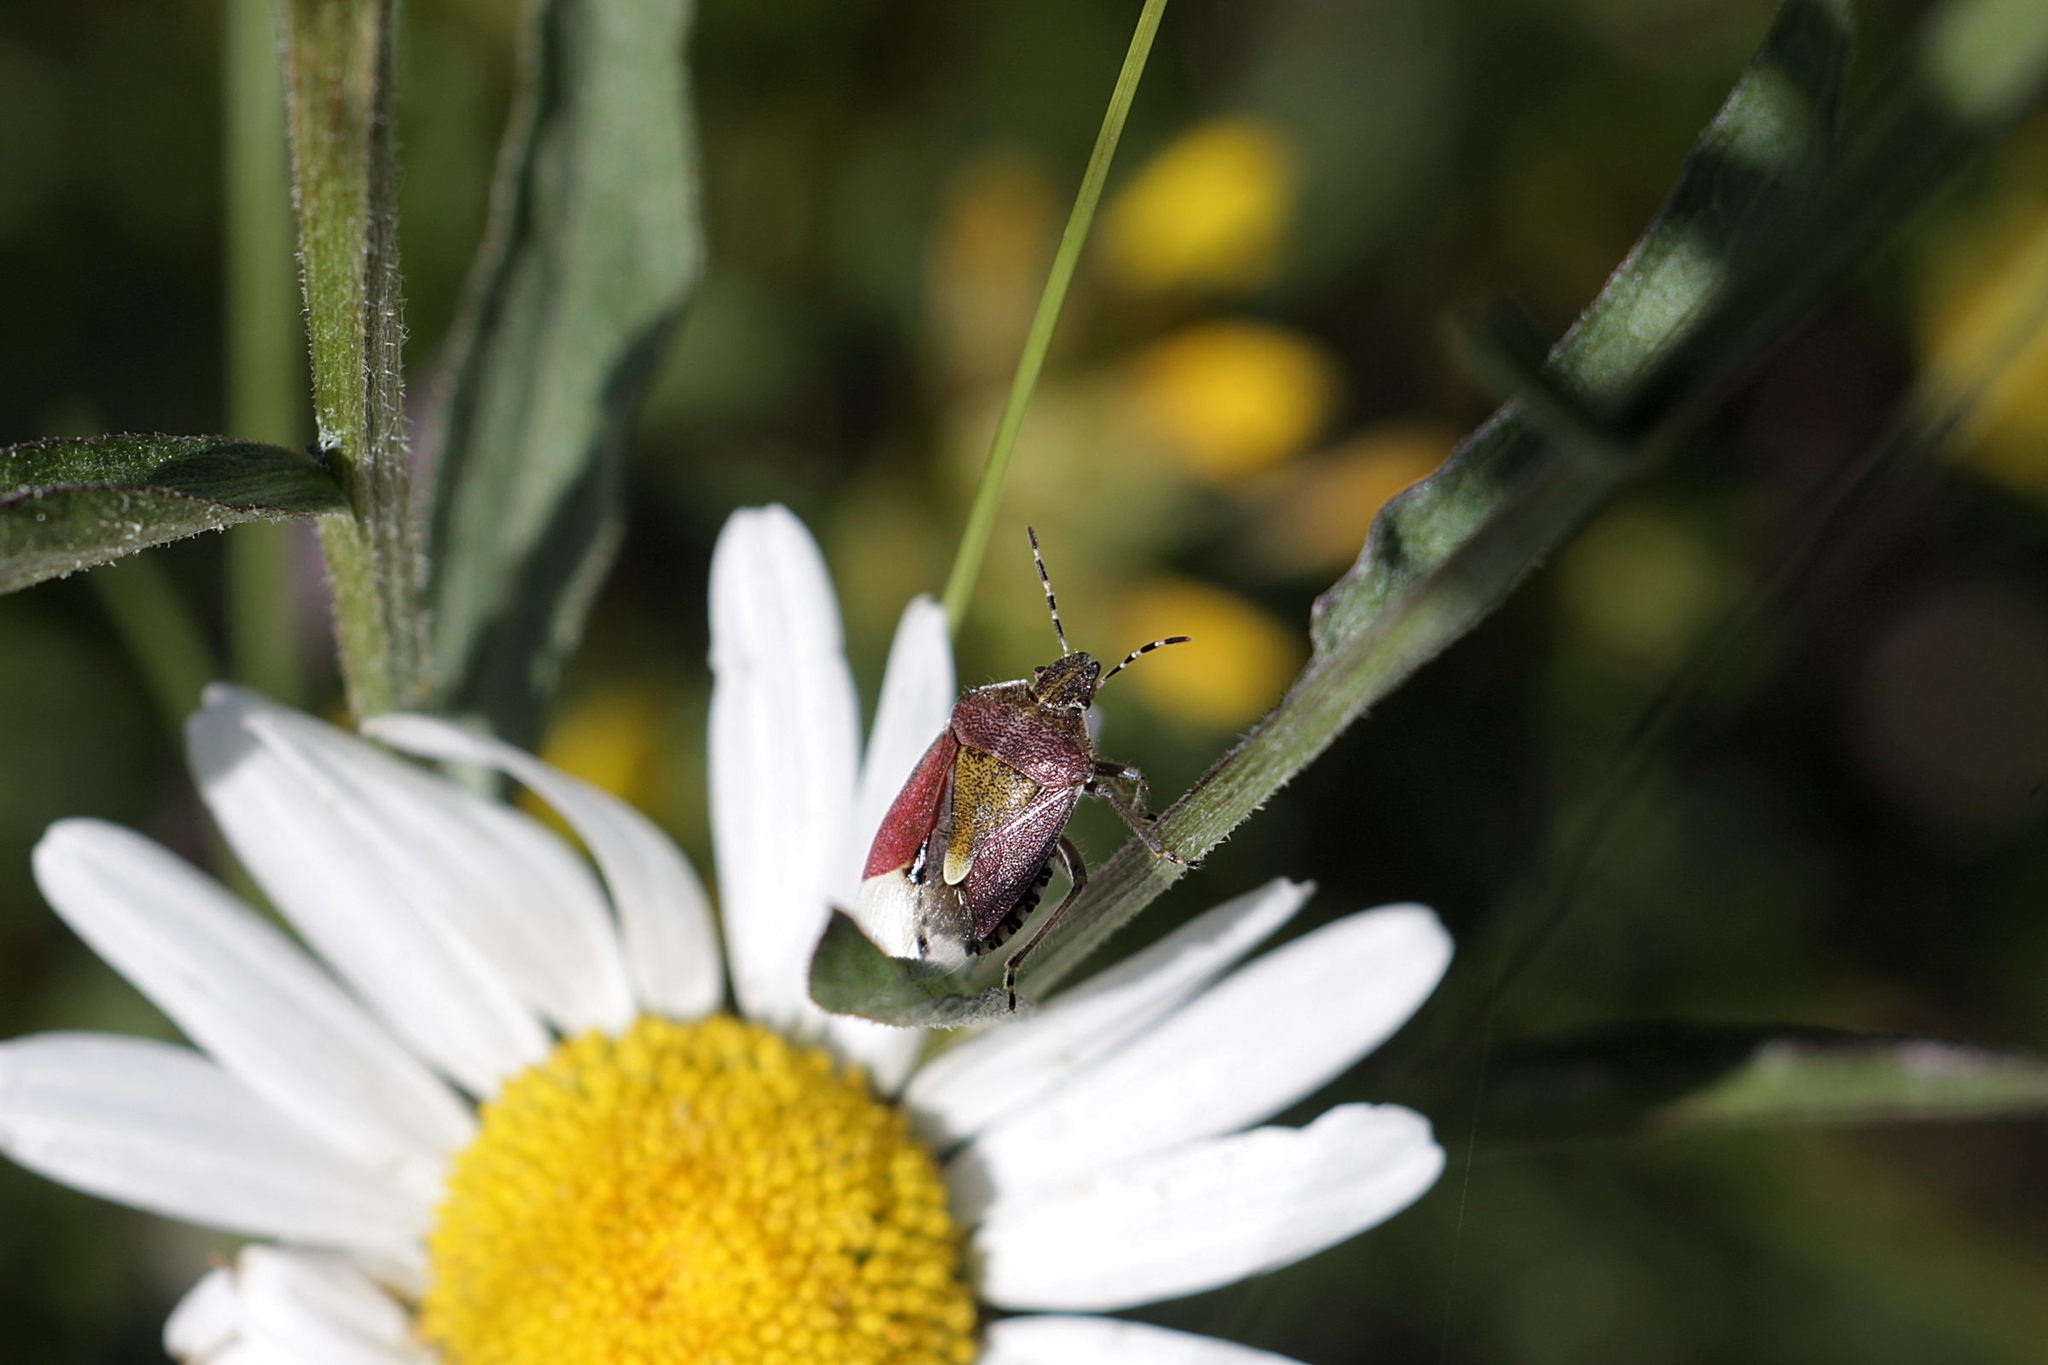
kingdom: Animalia
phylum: Arthropoda
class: Insecta
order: Hemiptera
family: Pentatomidae
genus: Dolycoris
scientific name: Dolycoris baccarum
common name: Sloe bug
